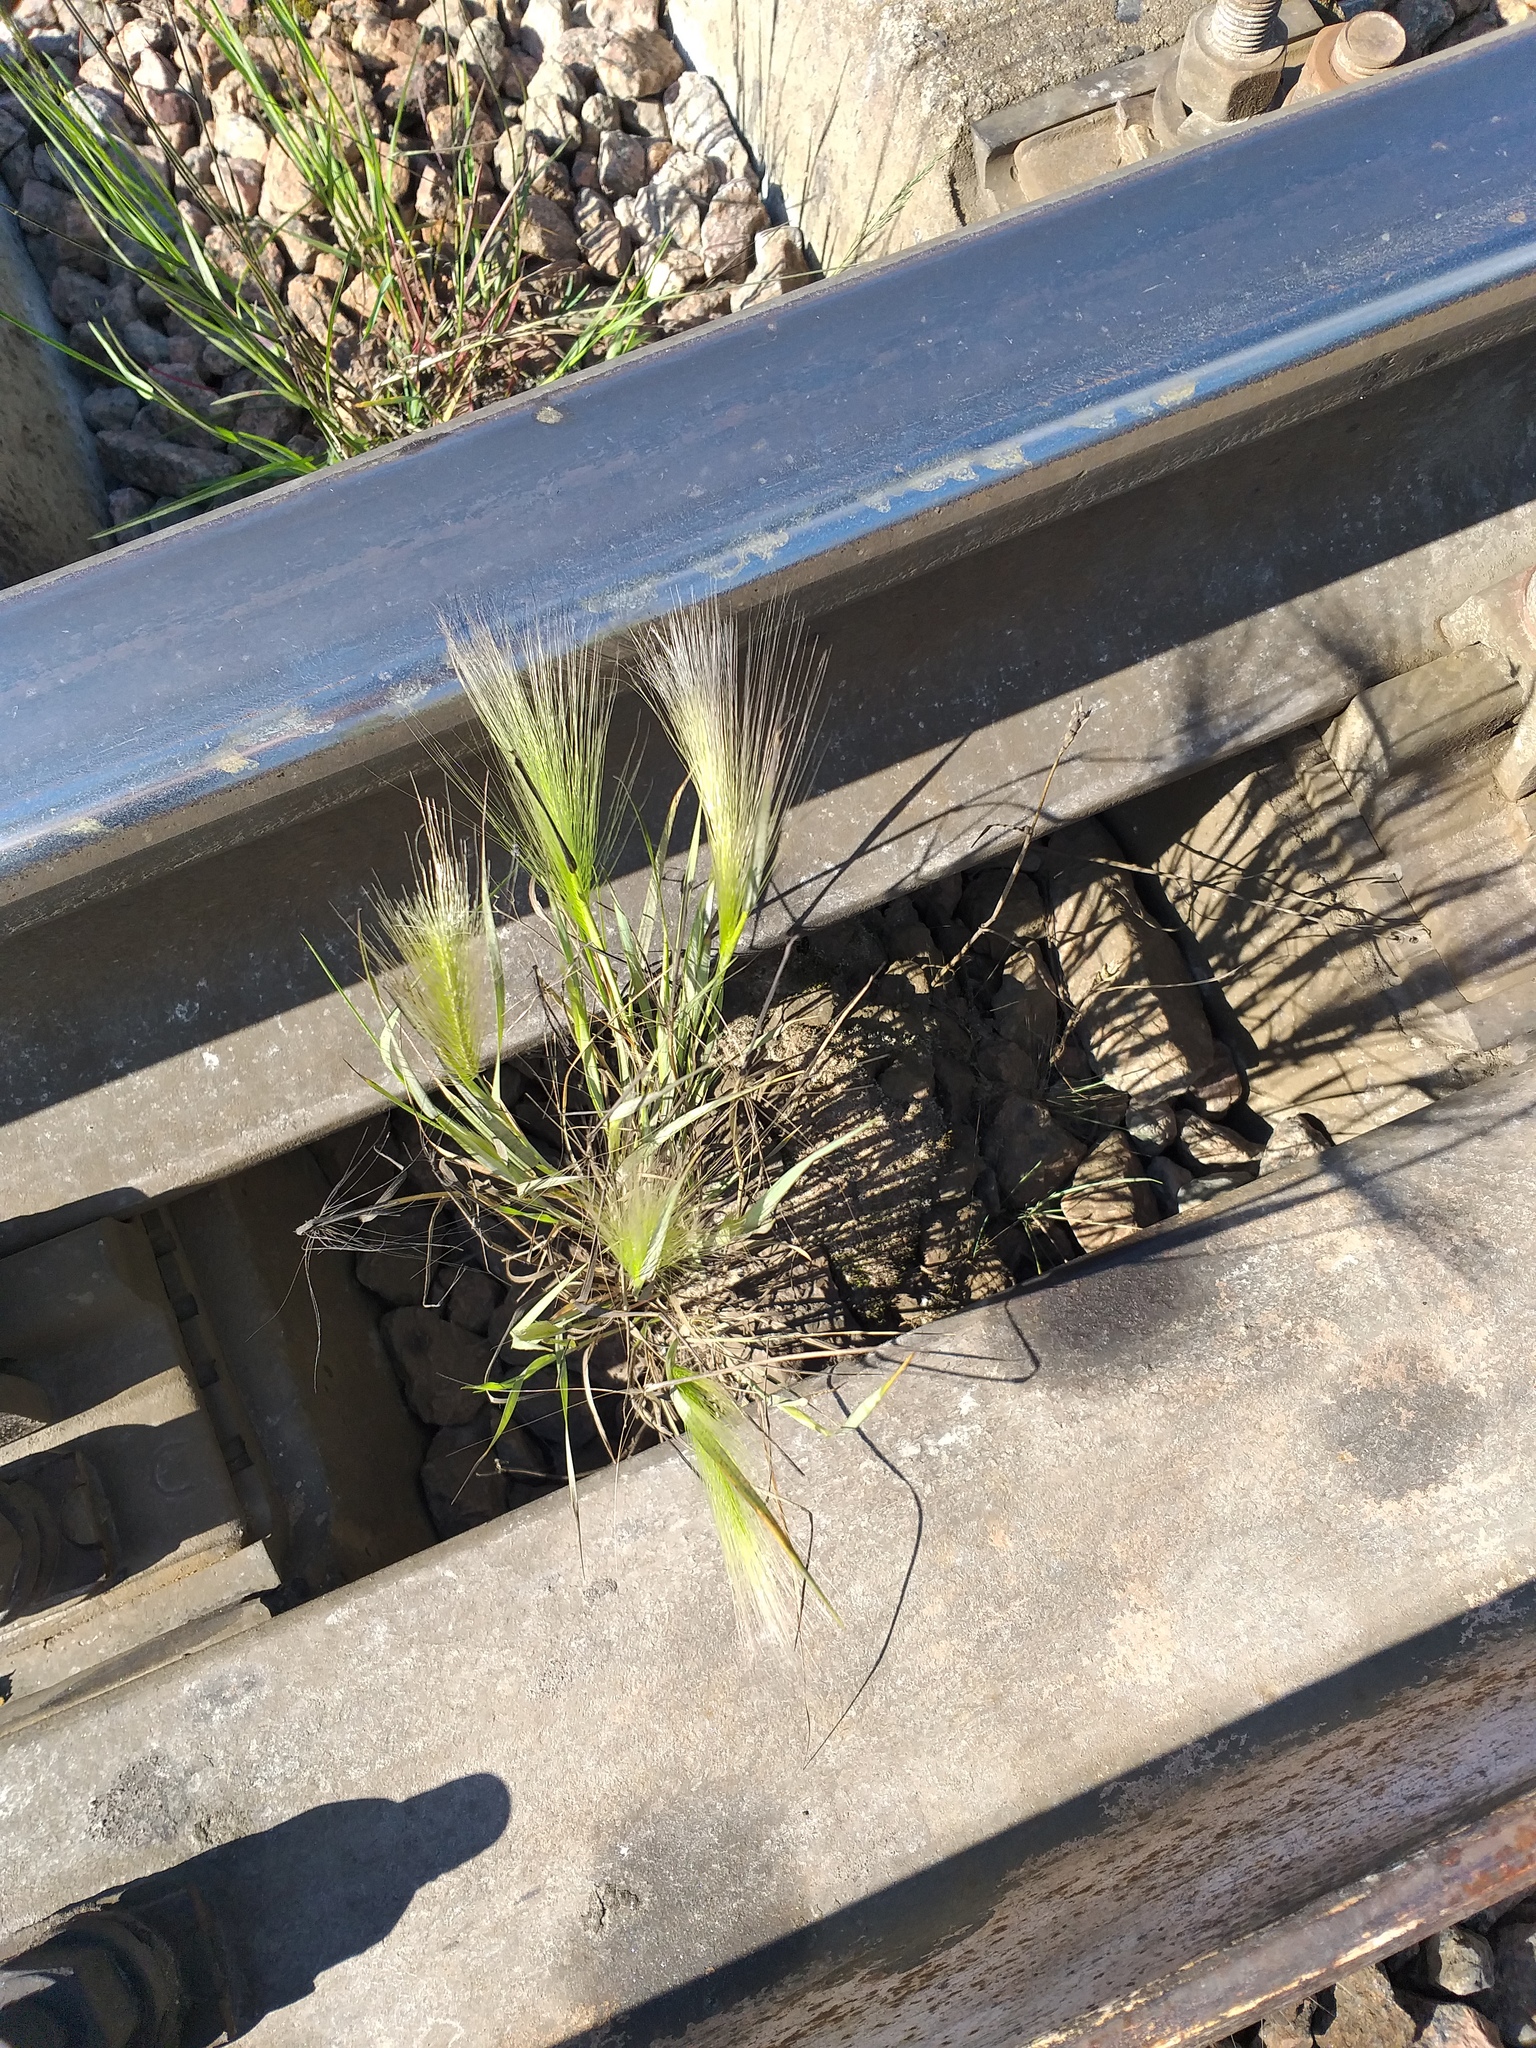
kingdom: Plantae
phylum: Tracheophyta
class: Liliopsida
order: Poales
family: Poaceae
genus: Hordeum
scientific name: Hordeum jubatum
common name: Foxtail barley
